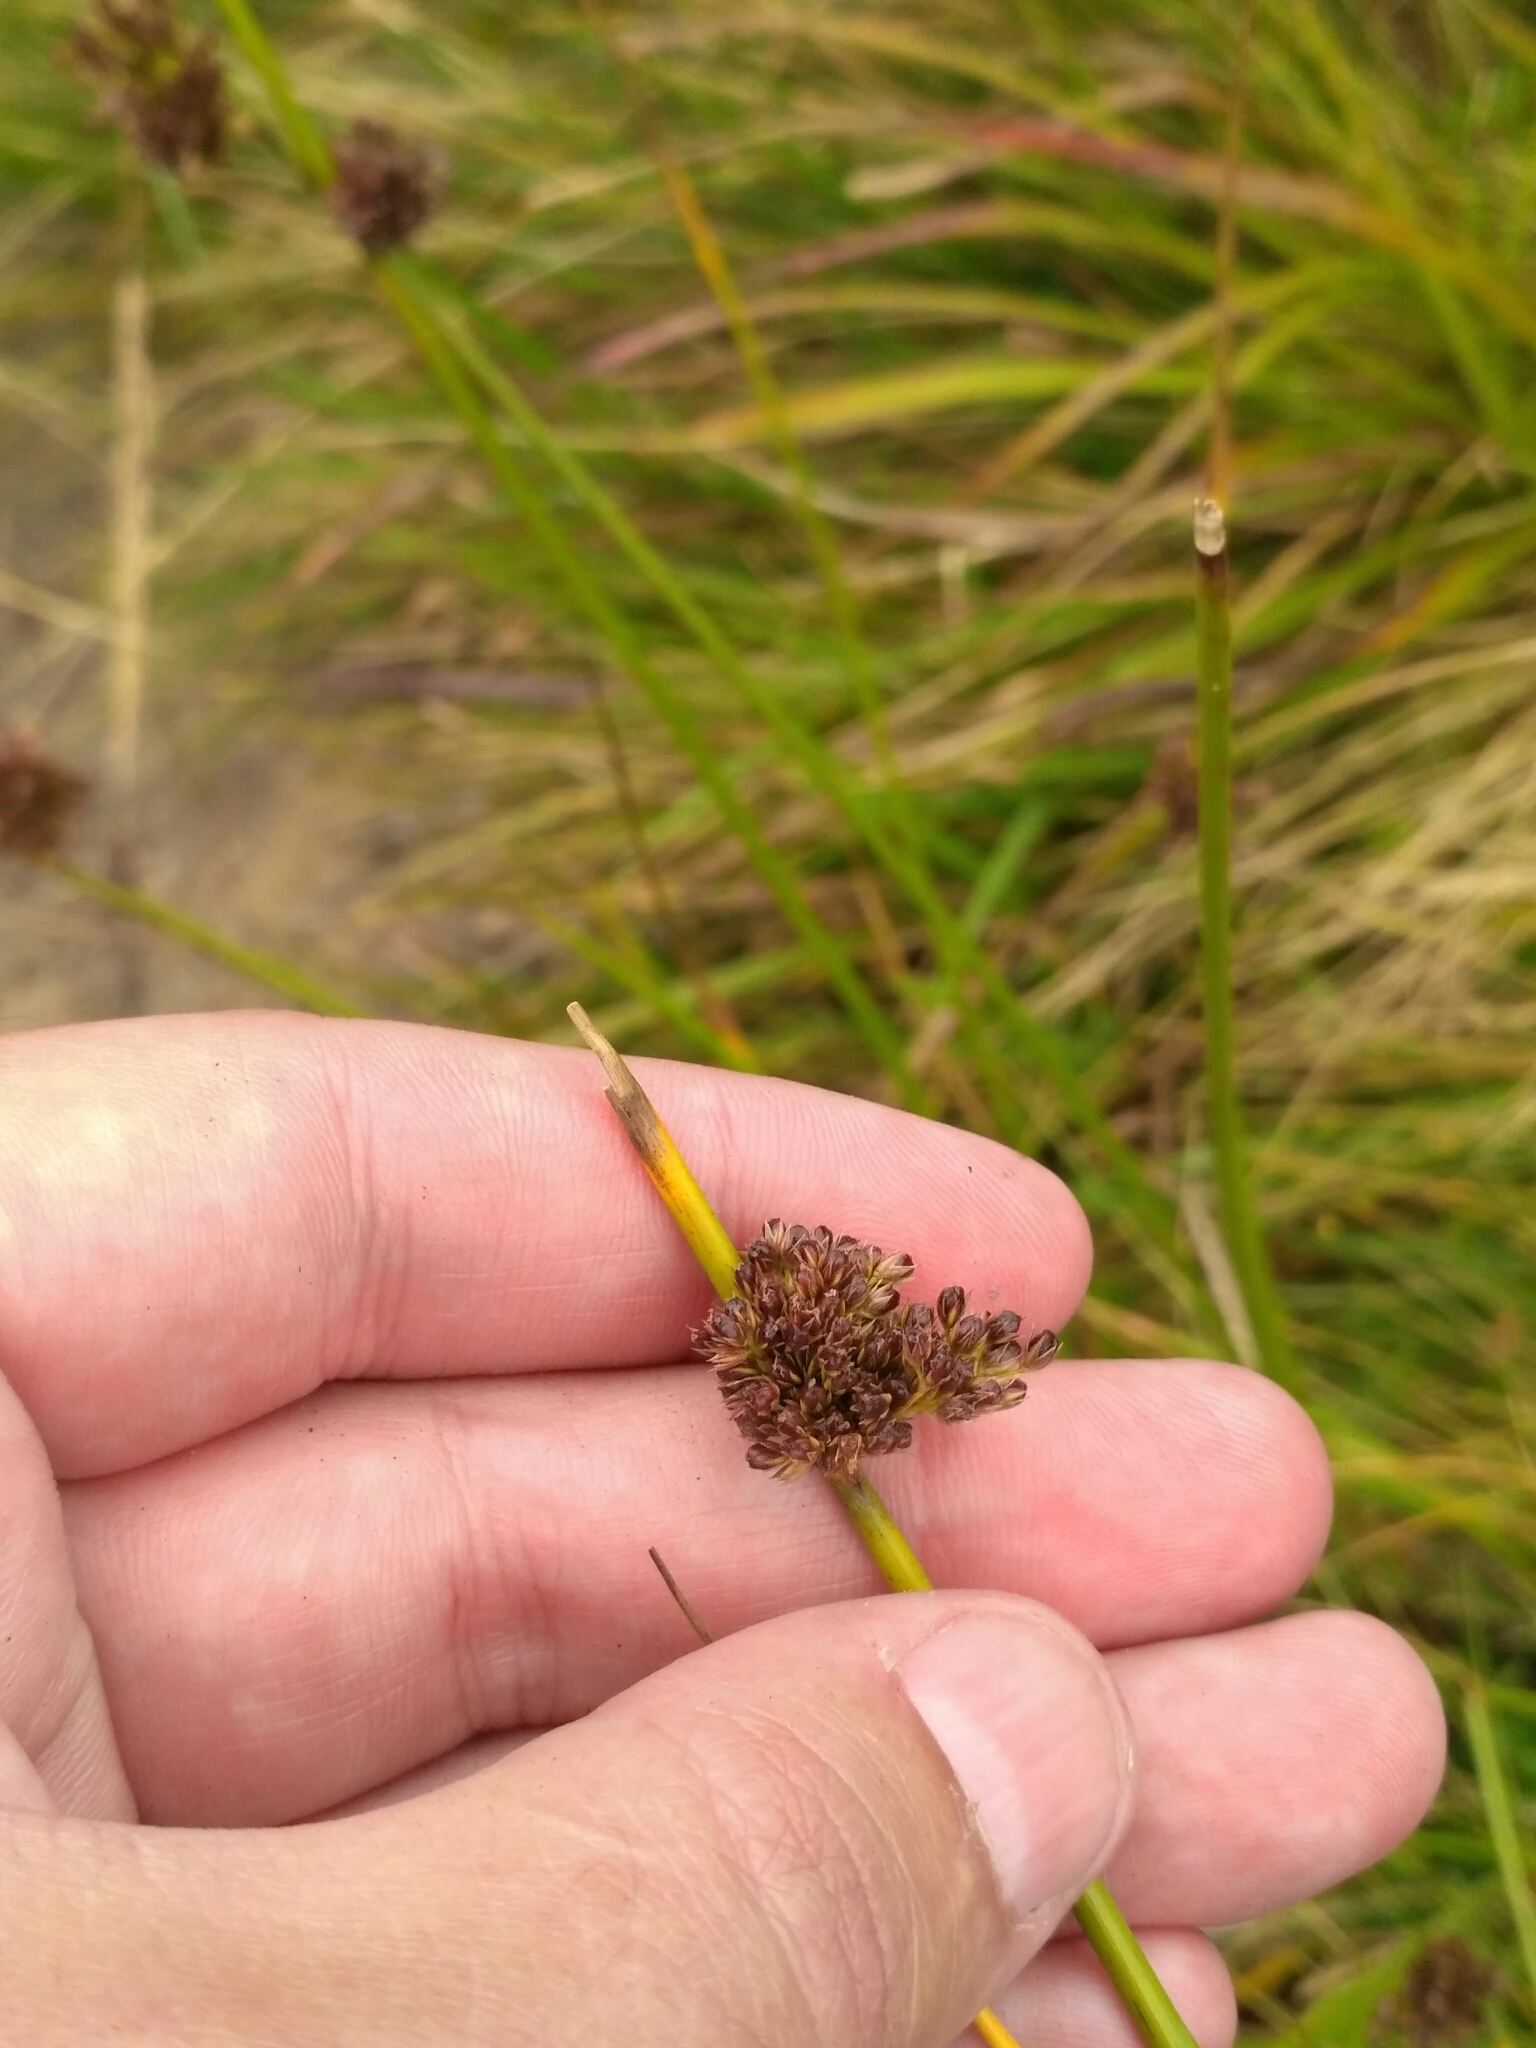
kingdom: Plantae
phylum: Tracheophyta
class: Liliopsida
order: Poales
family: Juncaceae
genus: Juncus
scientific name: Juncus effusus
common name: Soft rush
